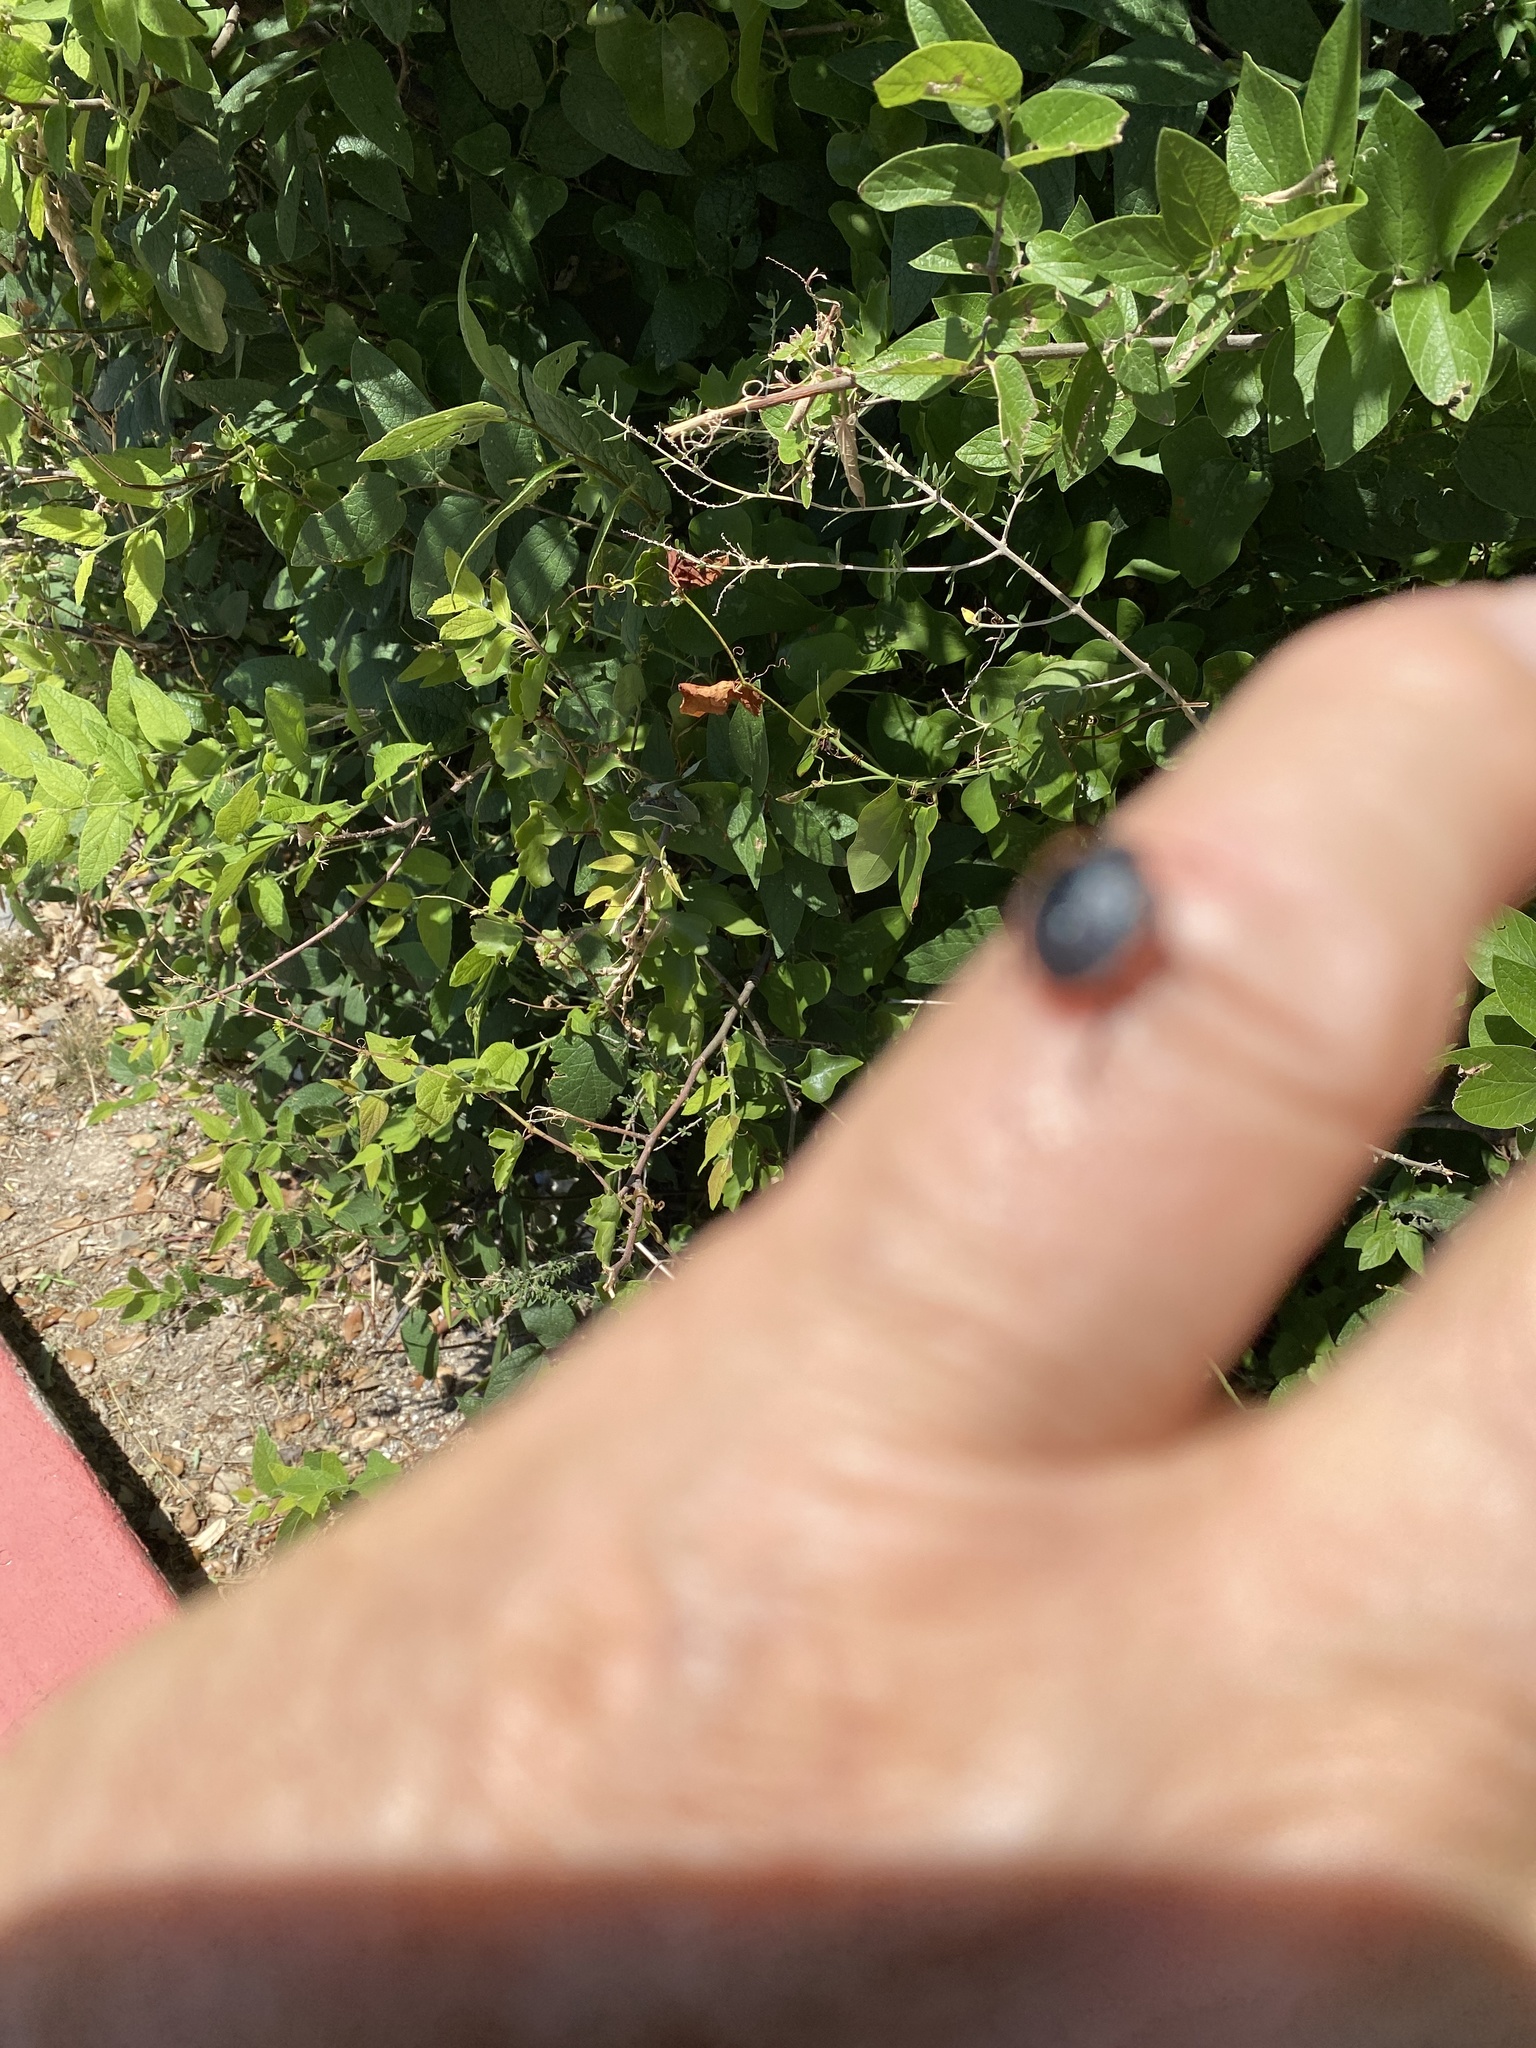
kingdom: Animalia
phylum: Arthropoda
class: Malacostraca
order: Isopoda
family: Armadillidiidae
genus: Armadillidium
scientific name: Armadillidium vulgare
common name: Common pill woodlouse
